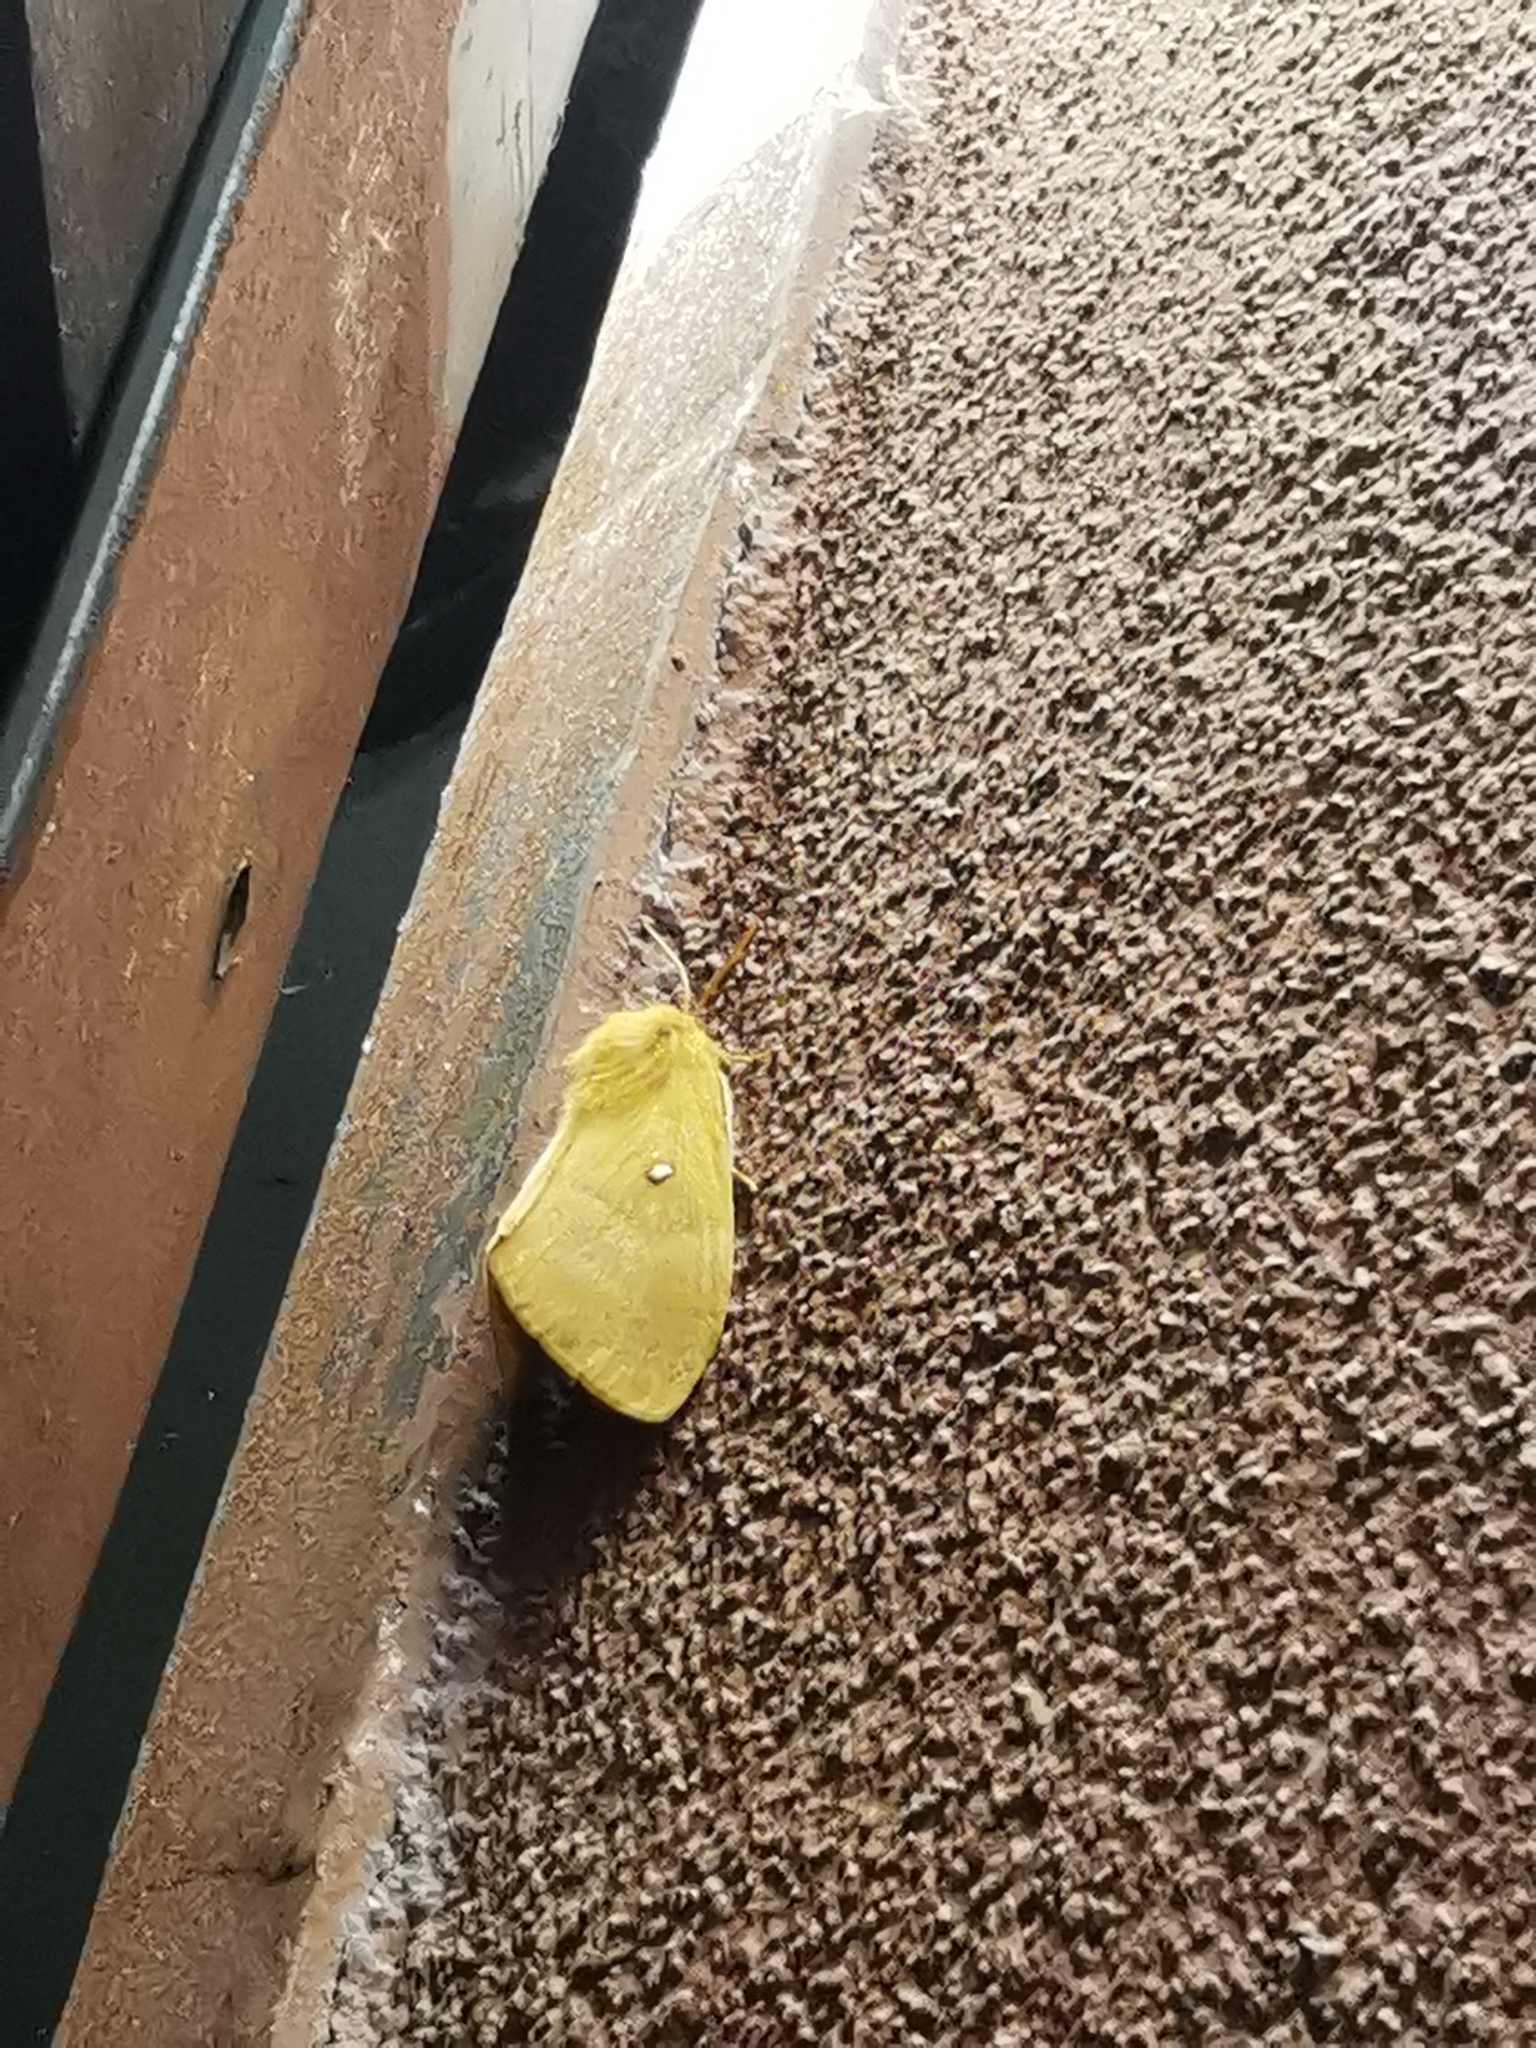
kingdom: Animalia
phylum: Arthropoda
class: Insecta
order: Lepidoptera
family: Lasiocampidae
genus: Lasiocampa
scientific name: Lasiocampa quercus
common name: Oak eggar
